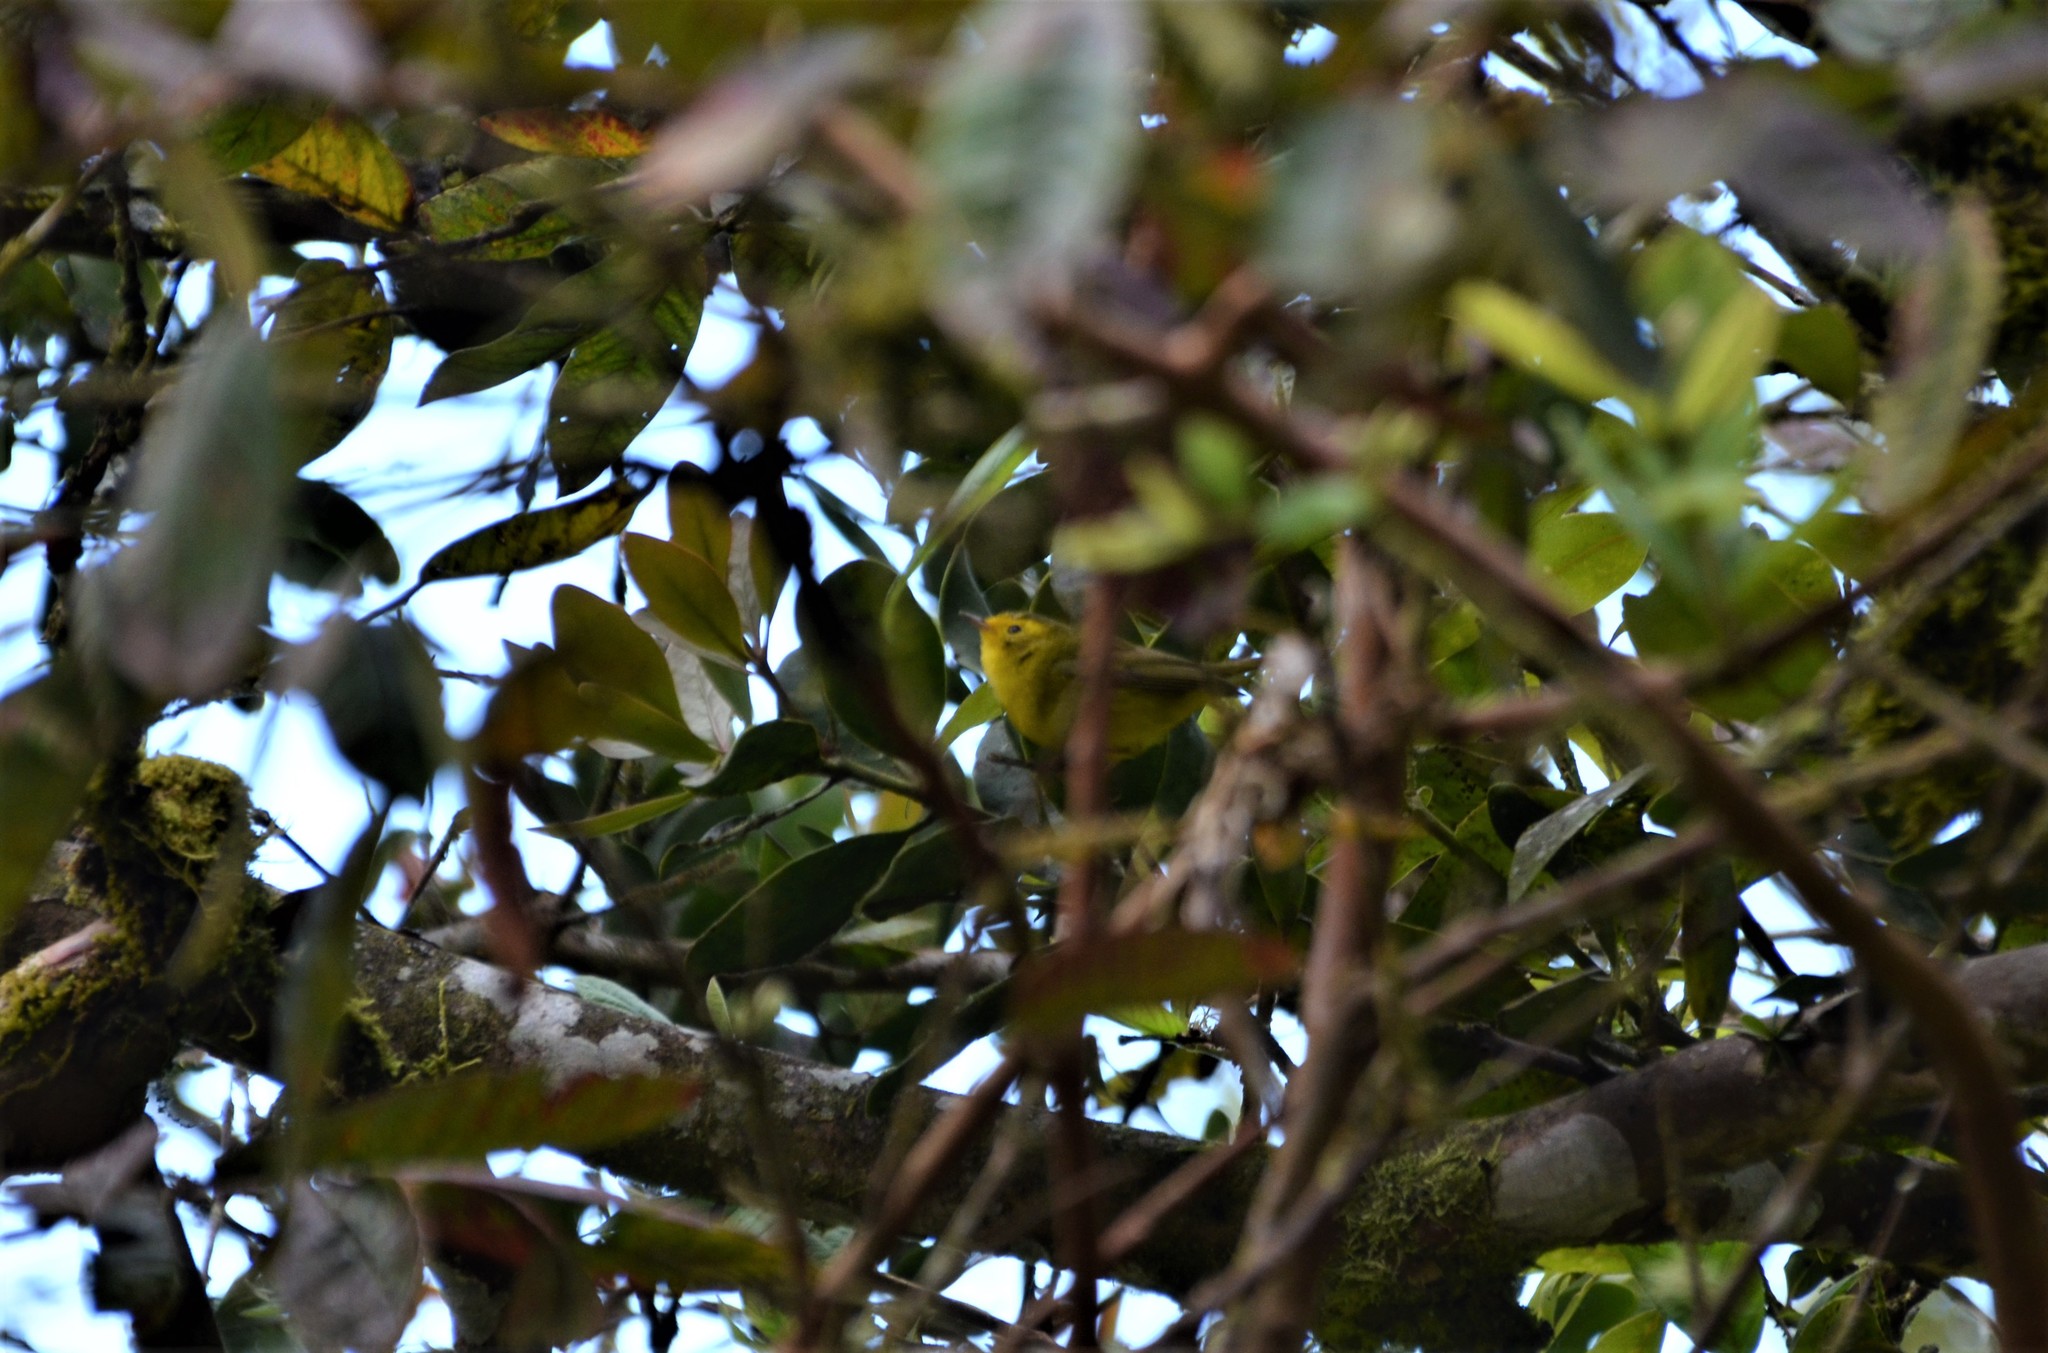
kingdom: Animalia
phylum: Chordata
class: Aves
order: Passeriformes
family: Parulidae
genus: Cardellina
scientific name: Cardellina pusilla
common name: Wilson's warbler
